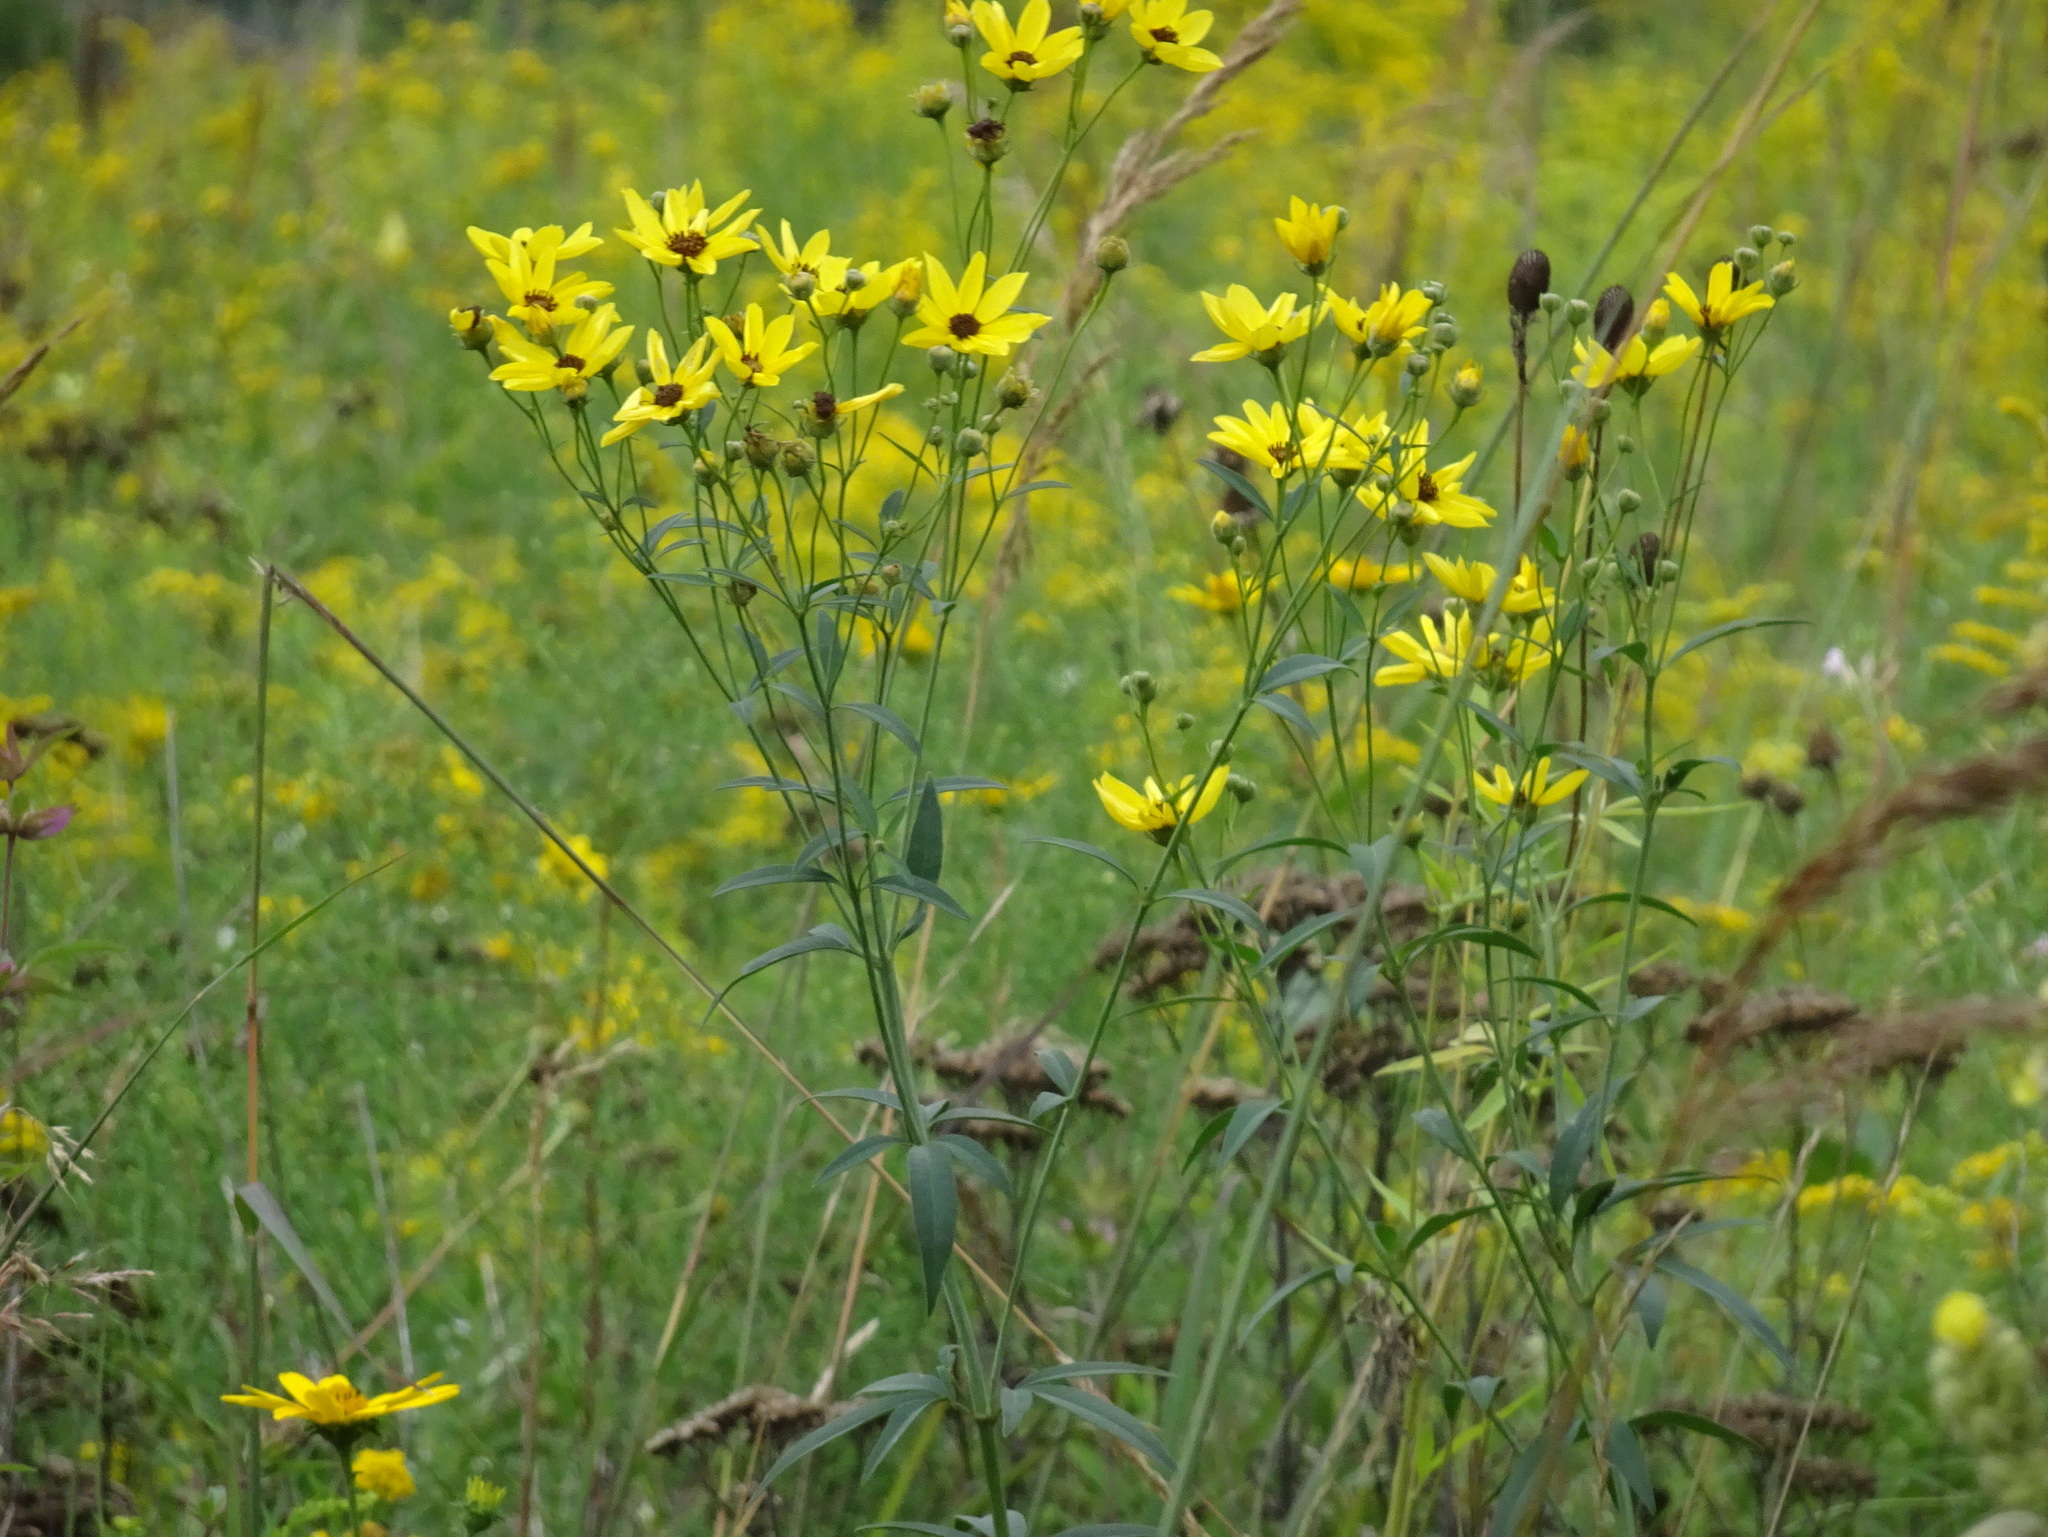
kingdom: Plantae
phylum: Tracheophyta
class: Magnoliopsida
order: Asterales
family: Asteraceae
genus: Coreopsis
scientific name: Coreopsis tripteris
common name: Tall coreopsis
